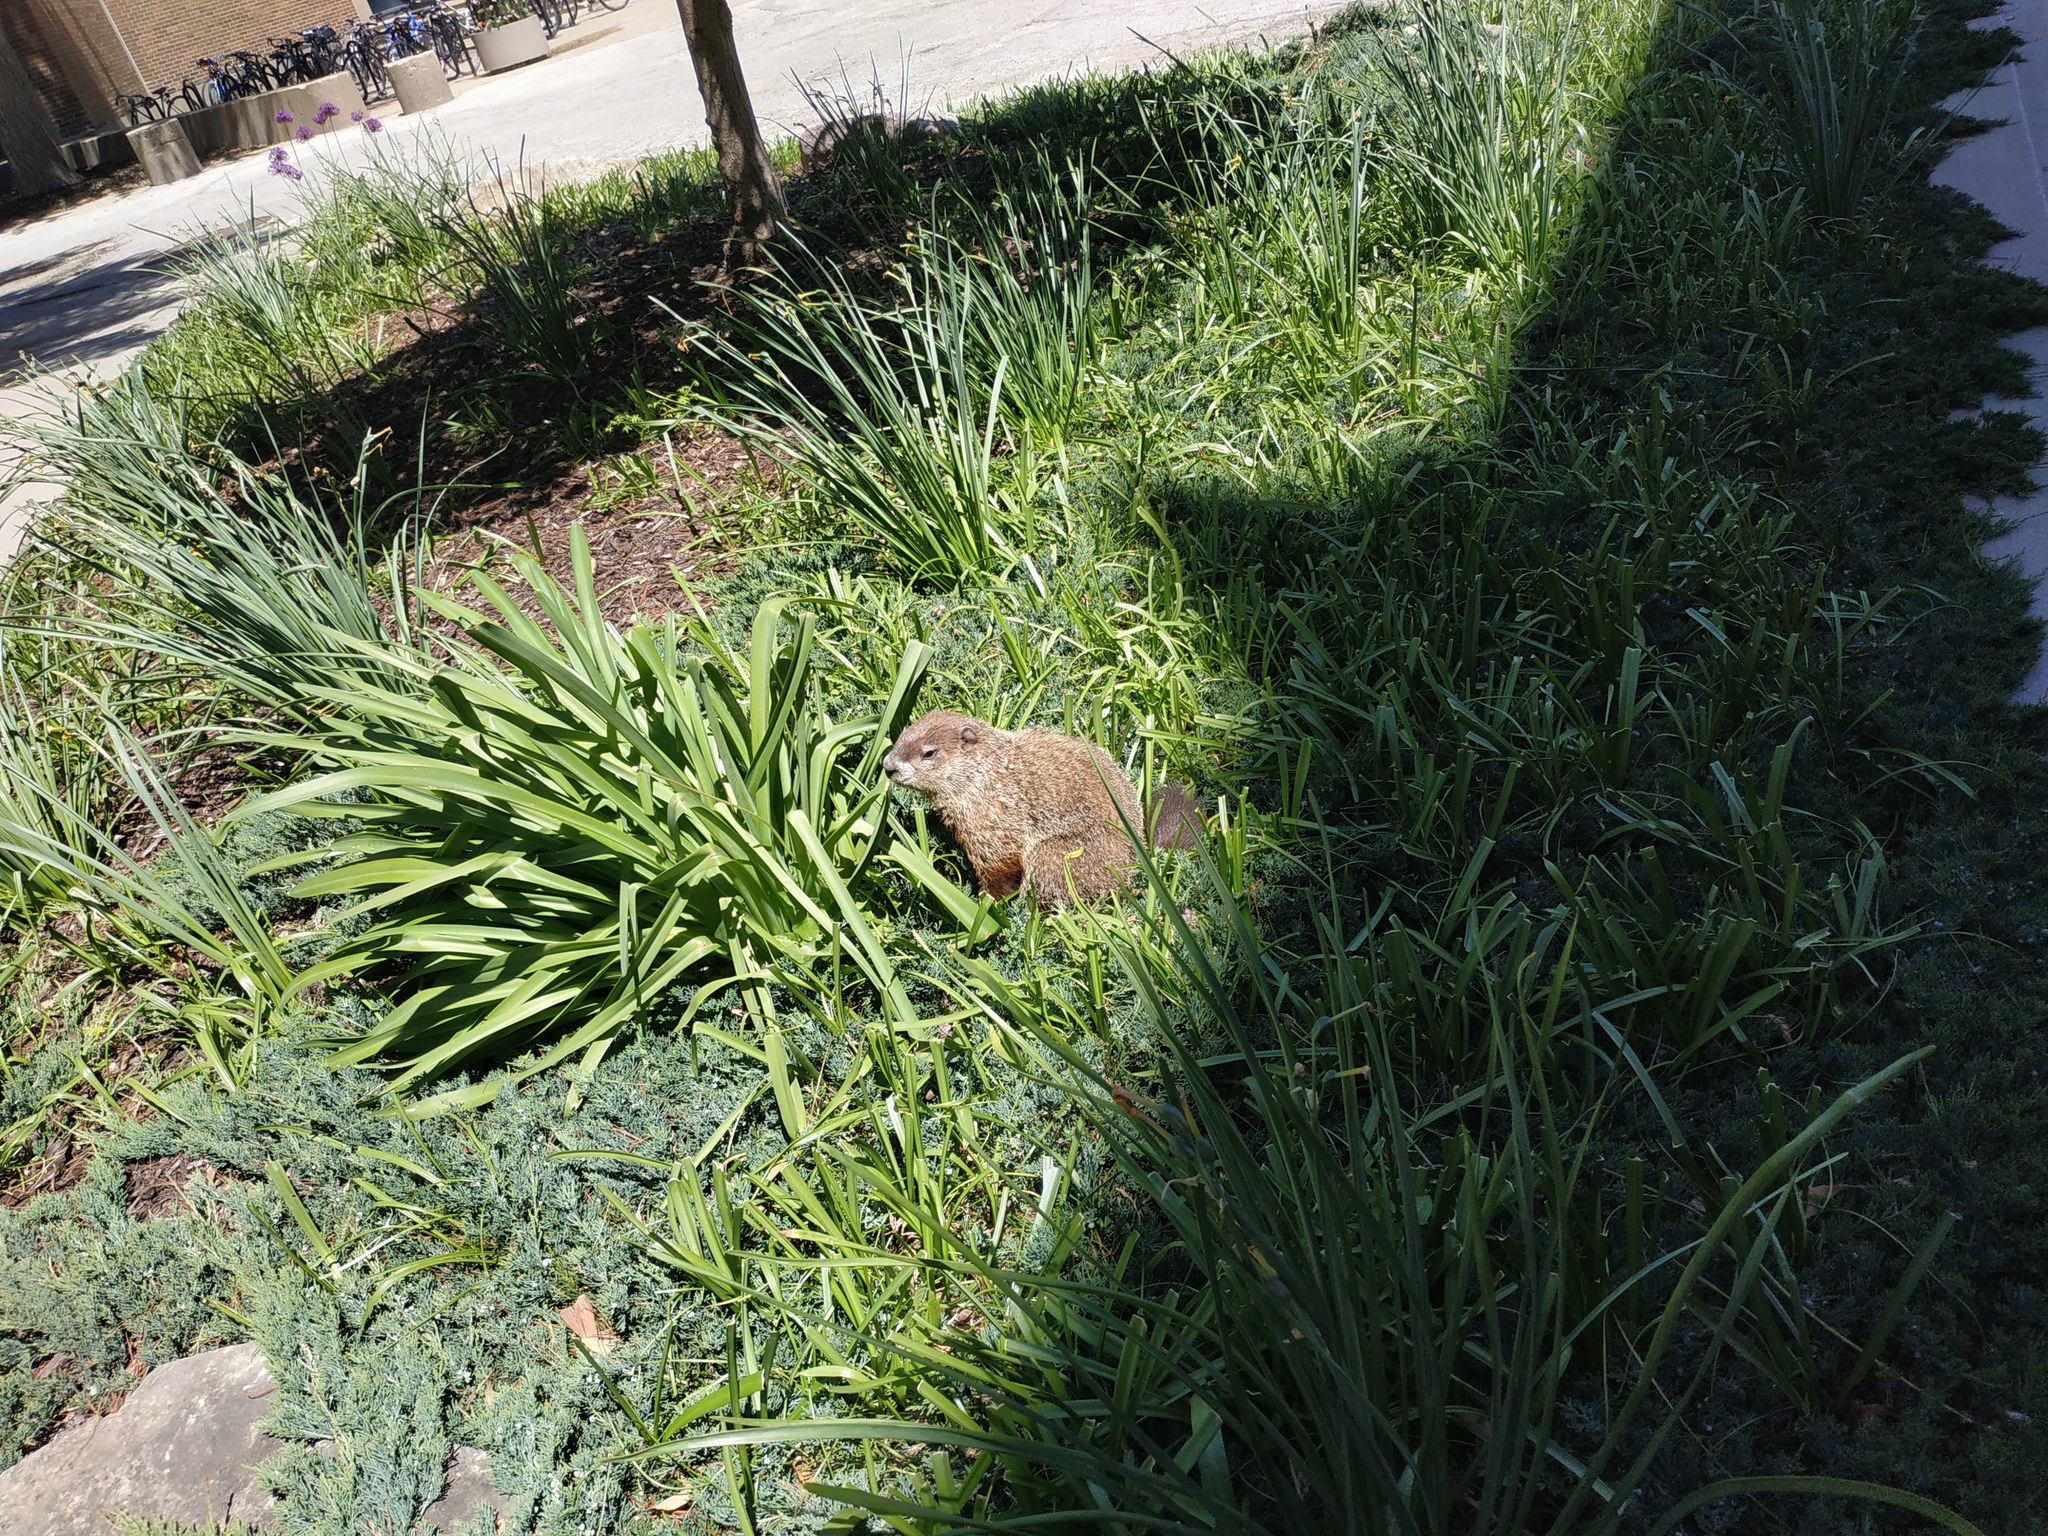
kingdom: Animalia
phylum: Chordata
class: Mammalia
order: Rodentia
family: Sciuridae
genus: Marmota
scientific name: Marmota monax
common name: Groundhog
